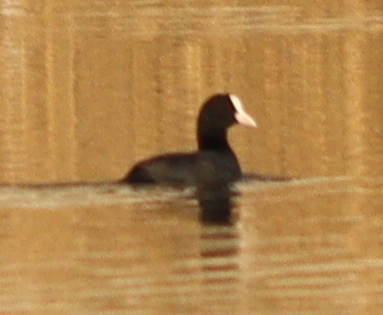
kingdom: Animalia
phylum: Chordata
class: Aves
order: Gruiformes
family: Rallidae
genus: Fulica
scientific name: Fulica atra
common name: Eurasian coot
